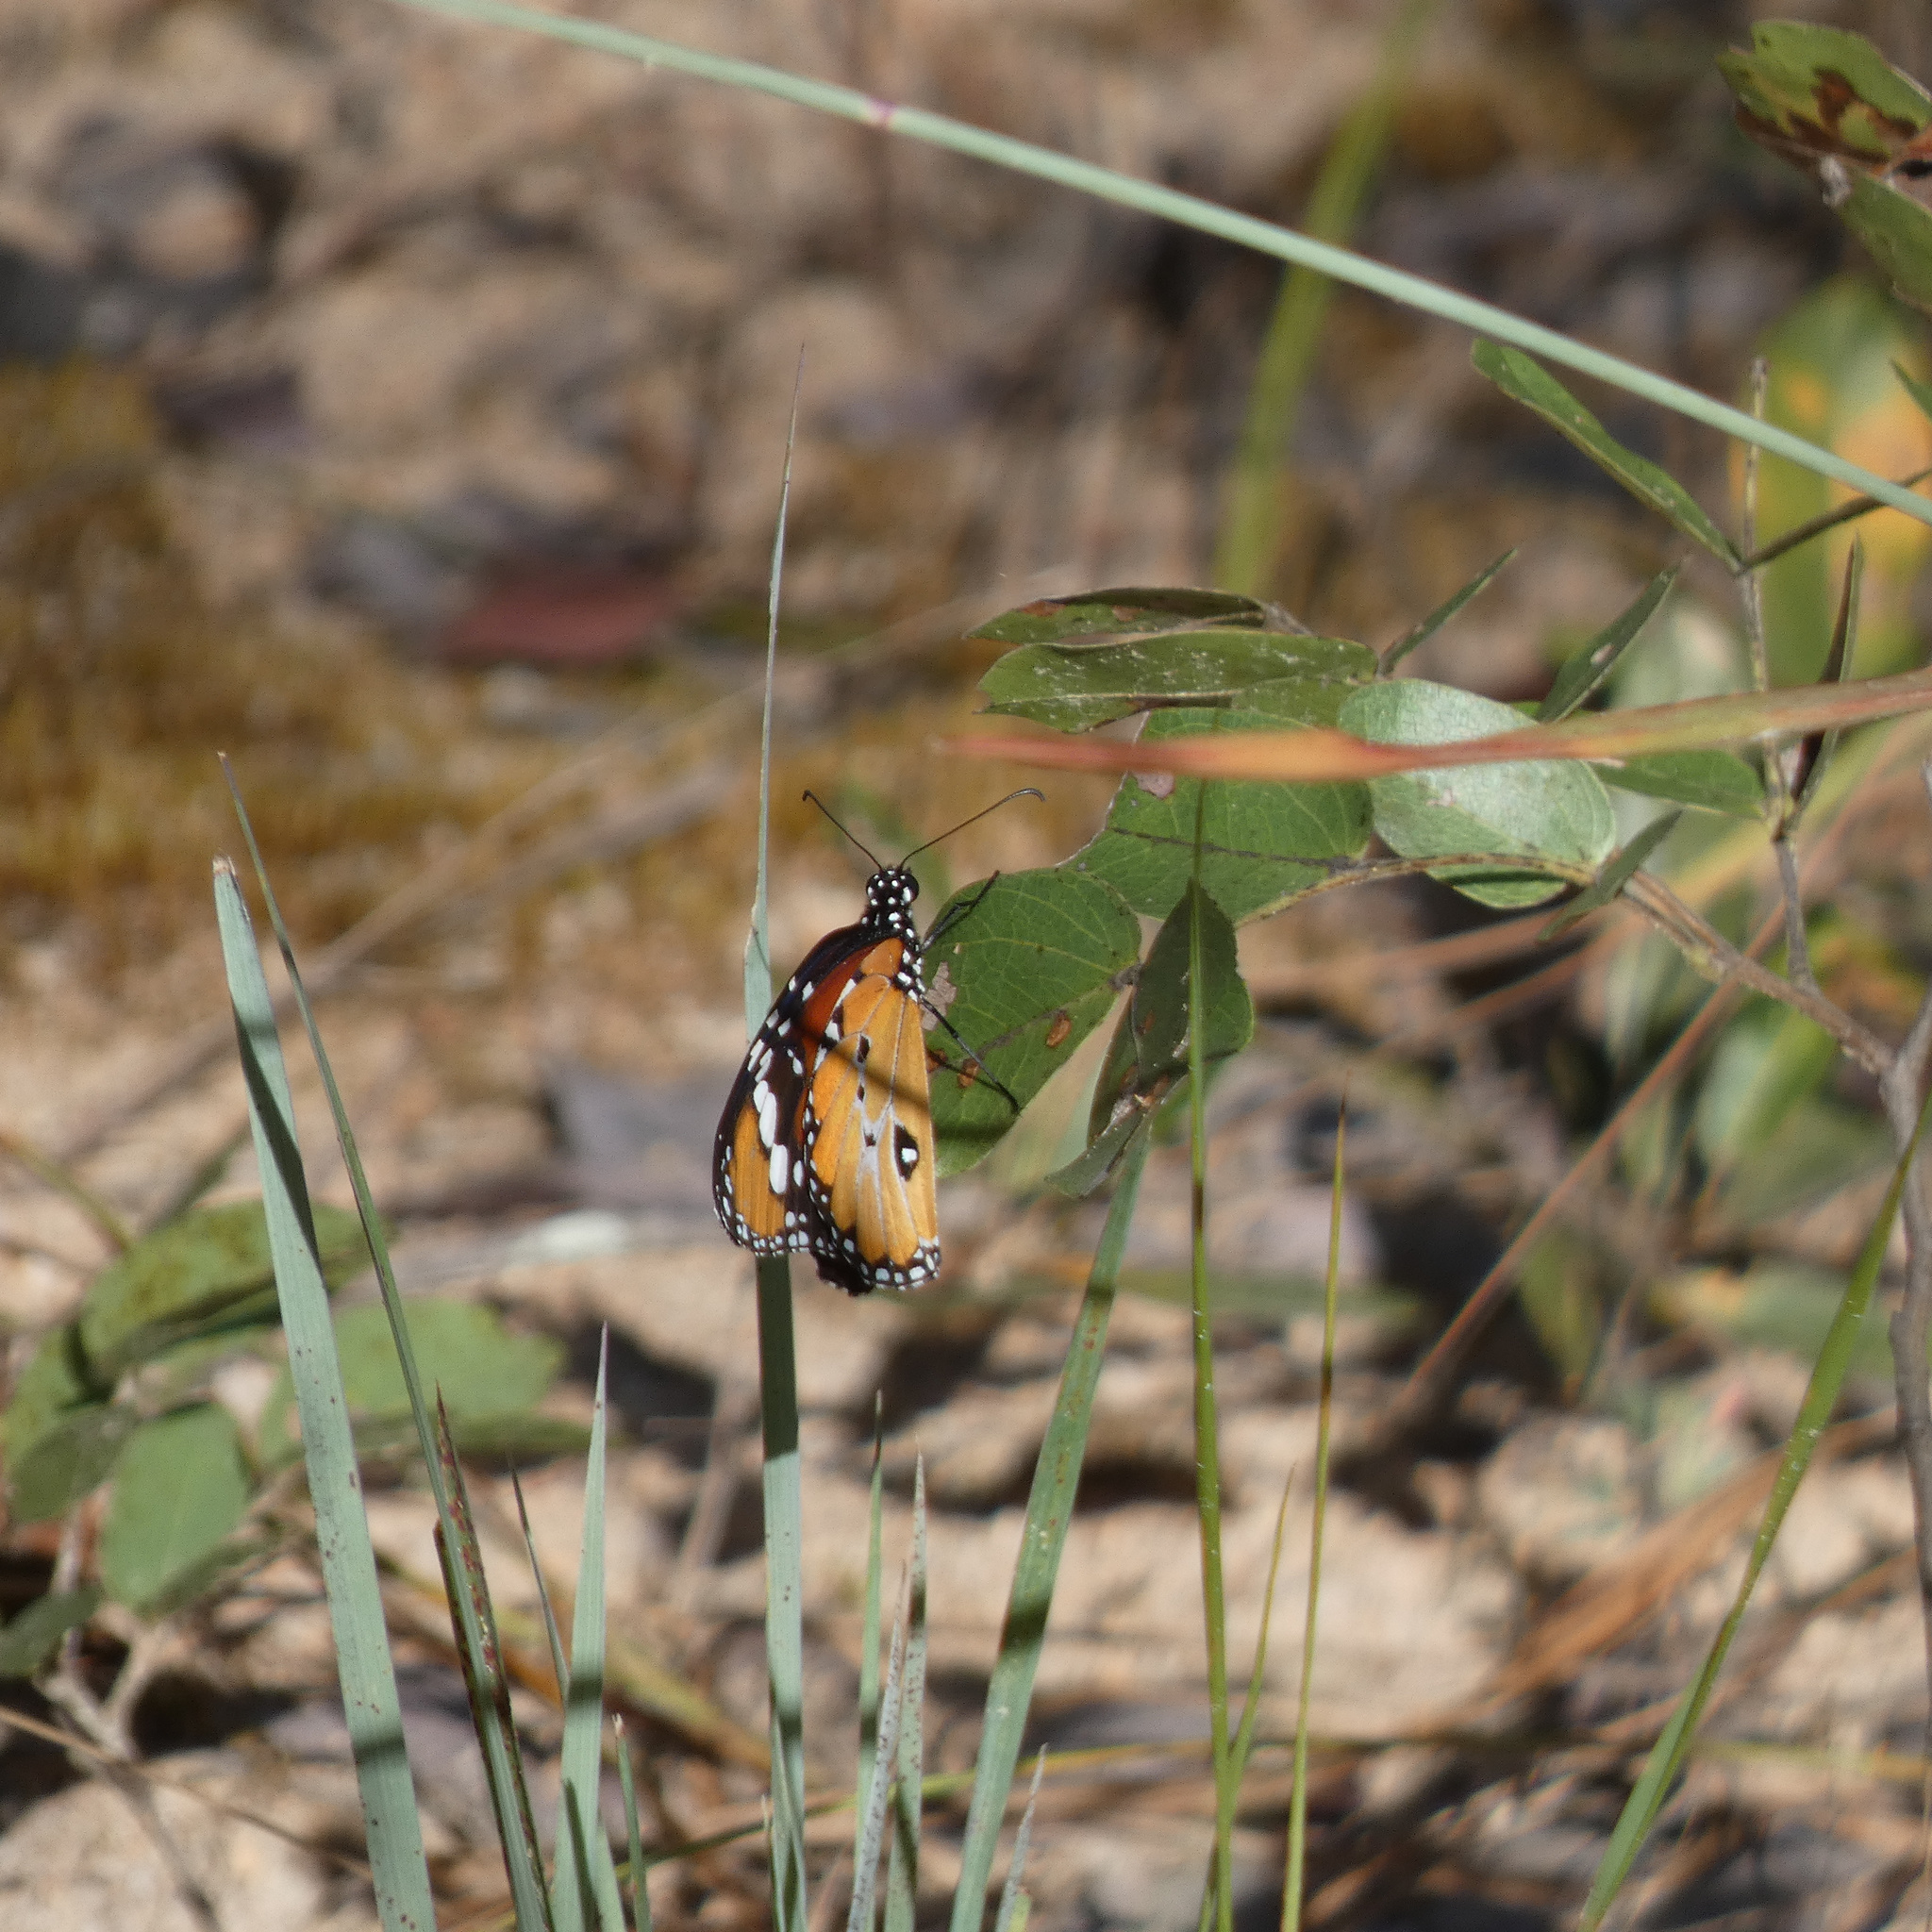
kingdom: Animalia
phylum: Arthropoda
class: Insecta
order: Lepidoptera
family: Nymphalidae
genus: Danaus
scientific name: Danaus chrysippus
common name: Plain tiger
